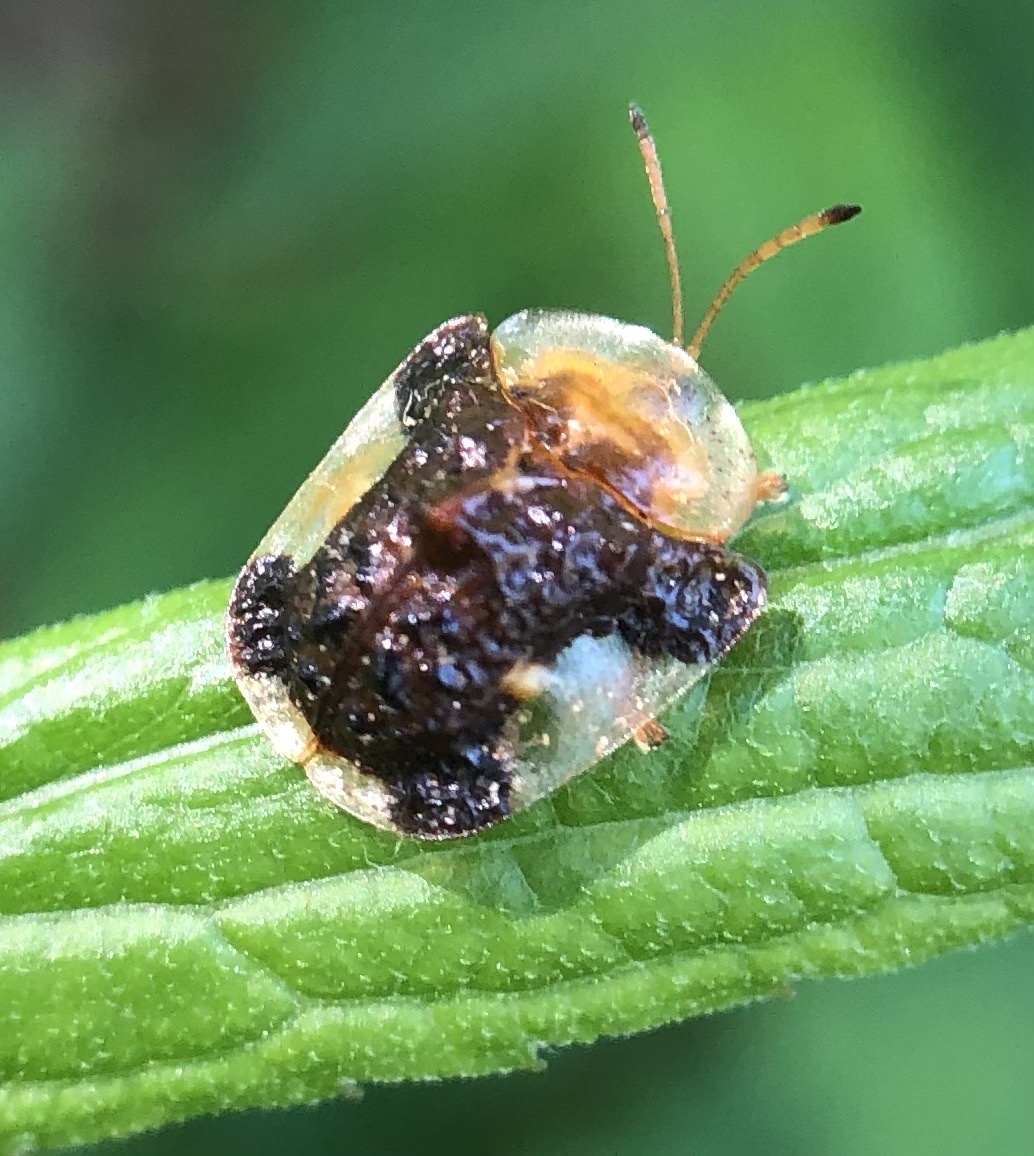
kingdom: Animalia
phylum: Arthropoda
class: Insecta
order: Coleoptera
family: Chrysomelidae
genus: Helocassis
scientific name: Helocassis clavata
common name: Clavate tortoise beetle
